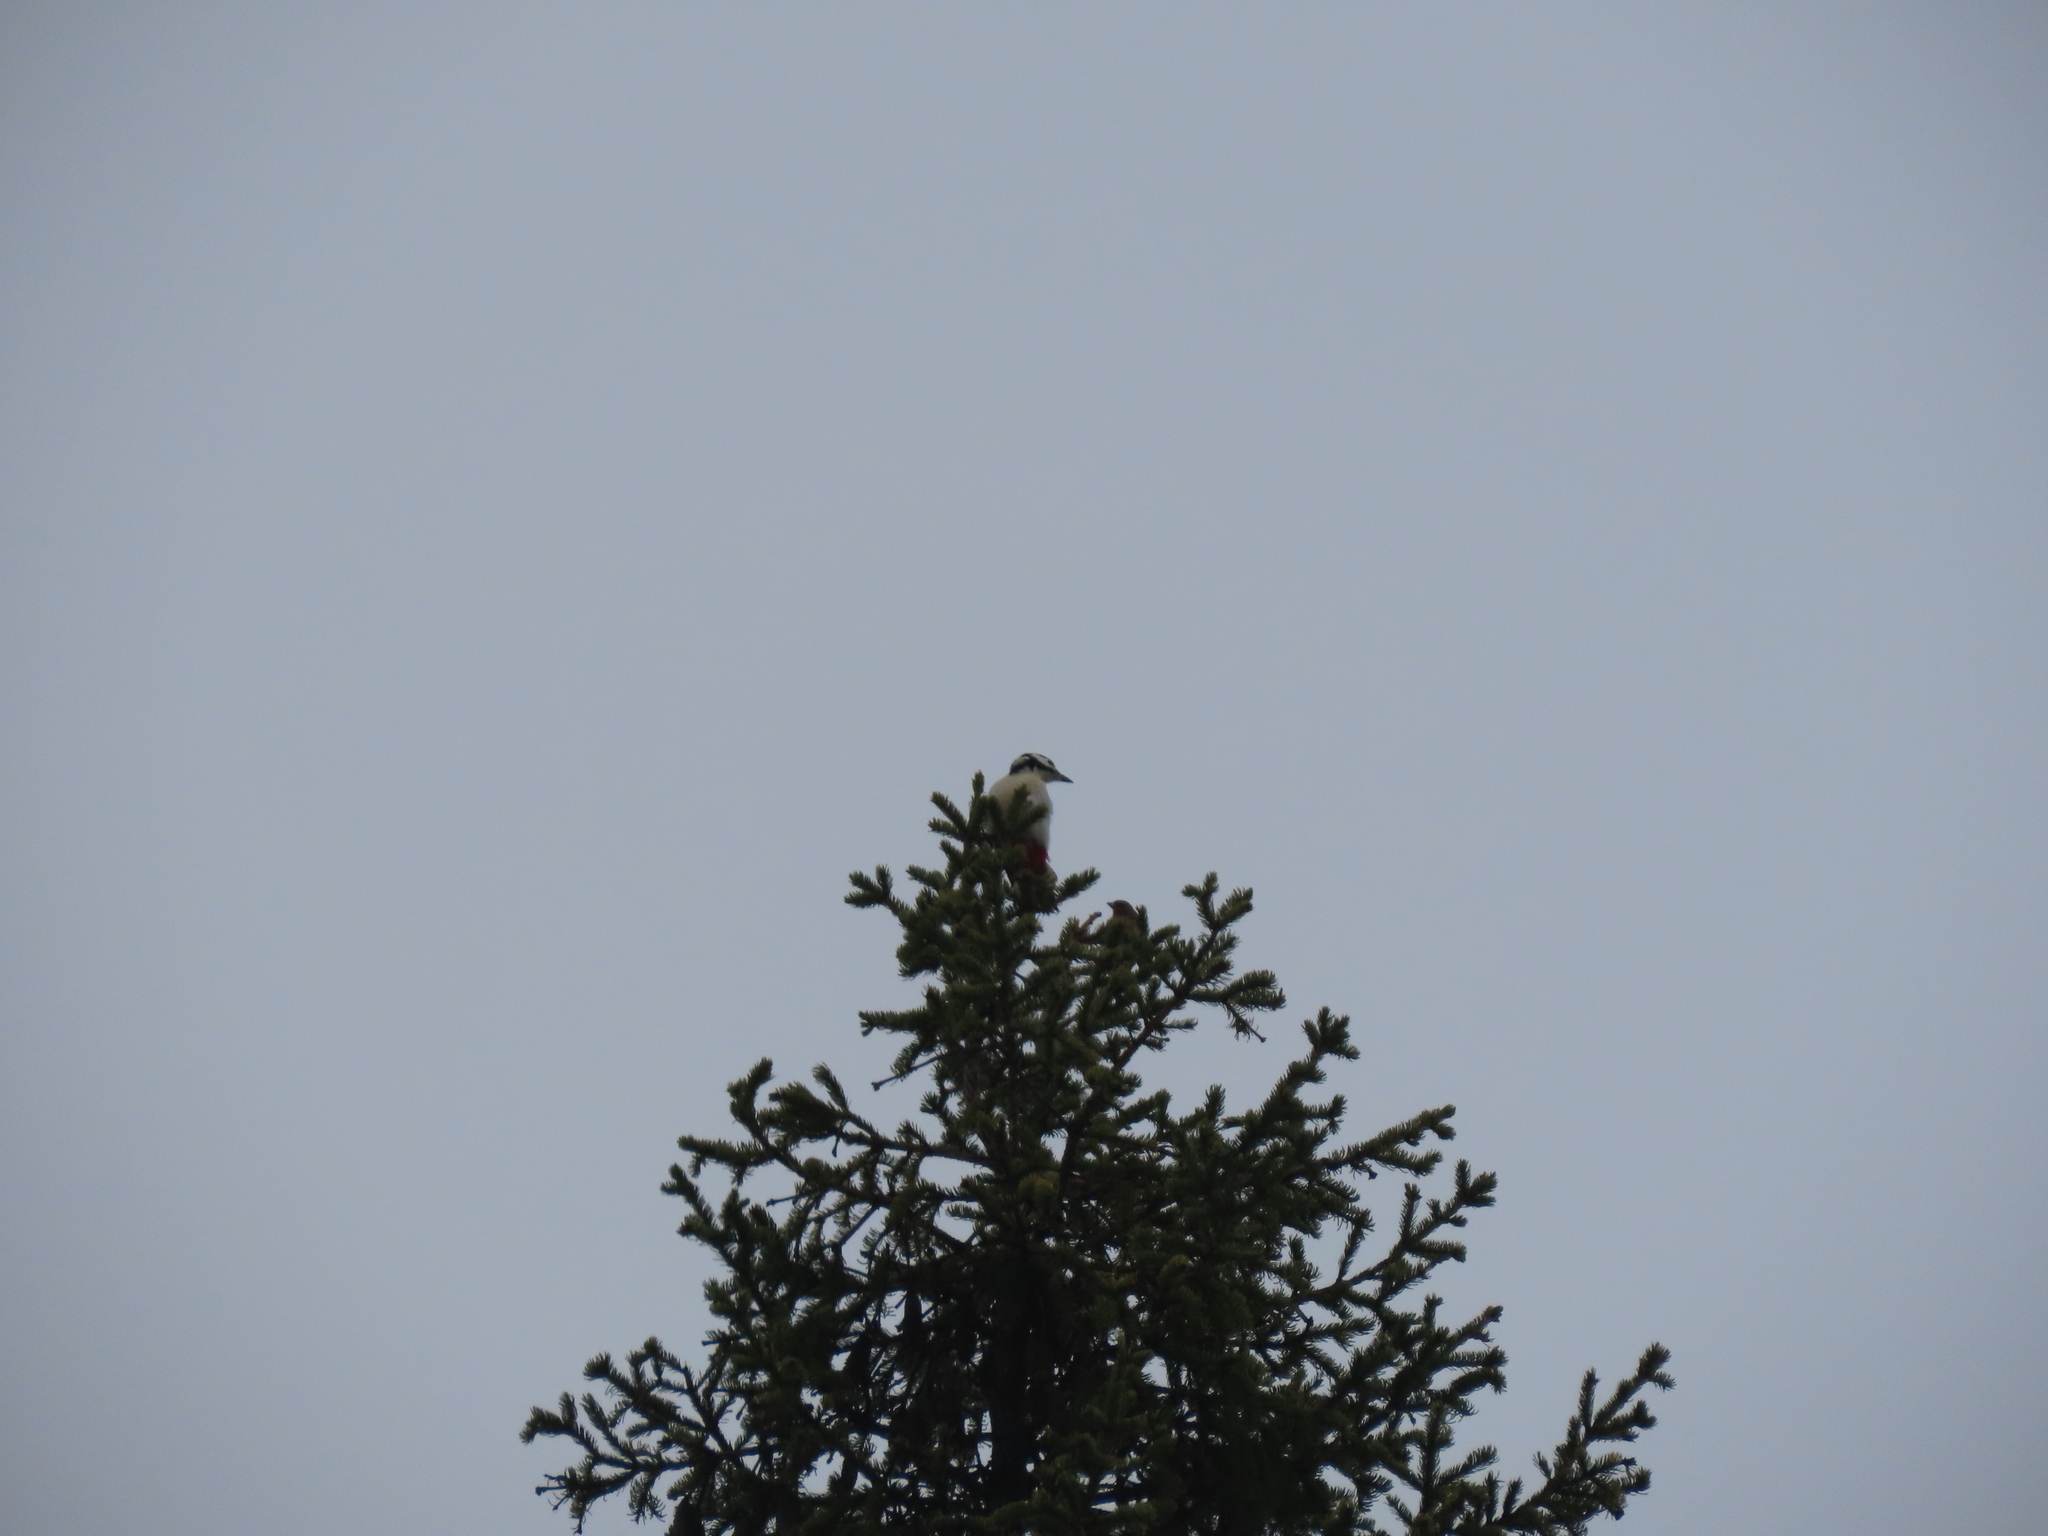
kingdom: Animalia
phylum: Chordata
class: Aves
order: Piciformes
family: Picidae
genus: Dendrocopos
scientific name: Dendrocopos major
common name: Great spotted woodpecker
